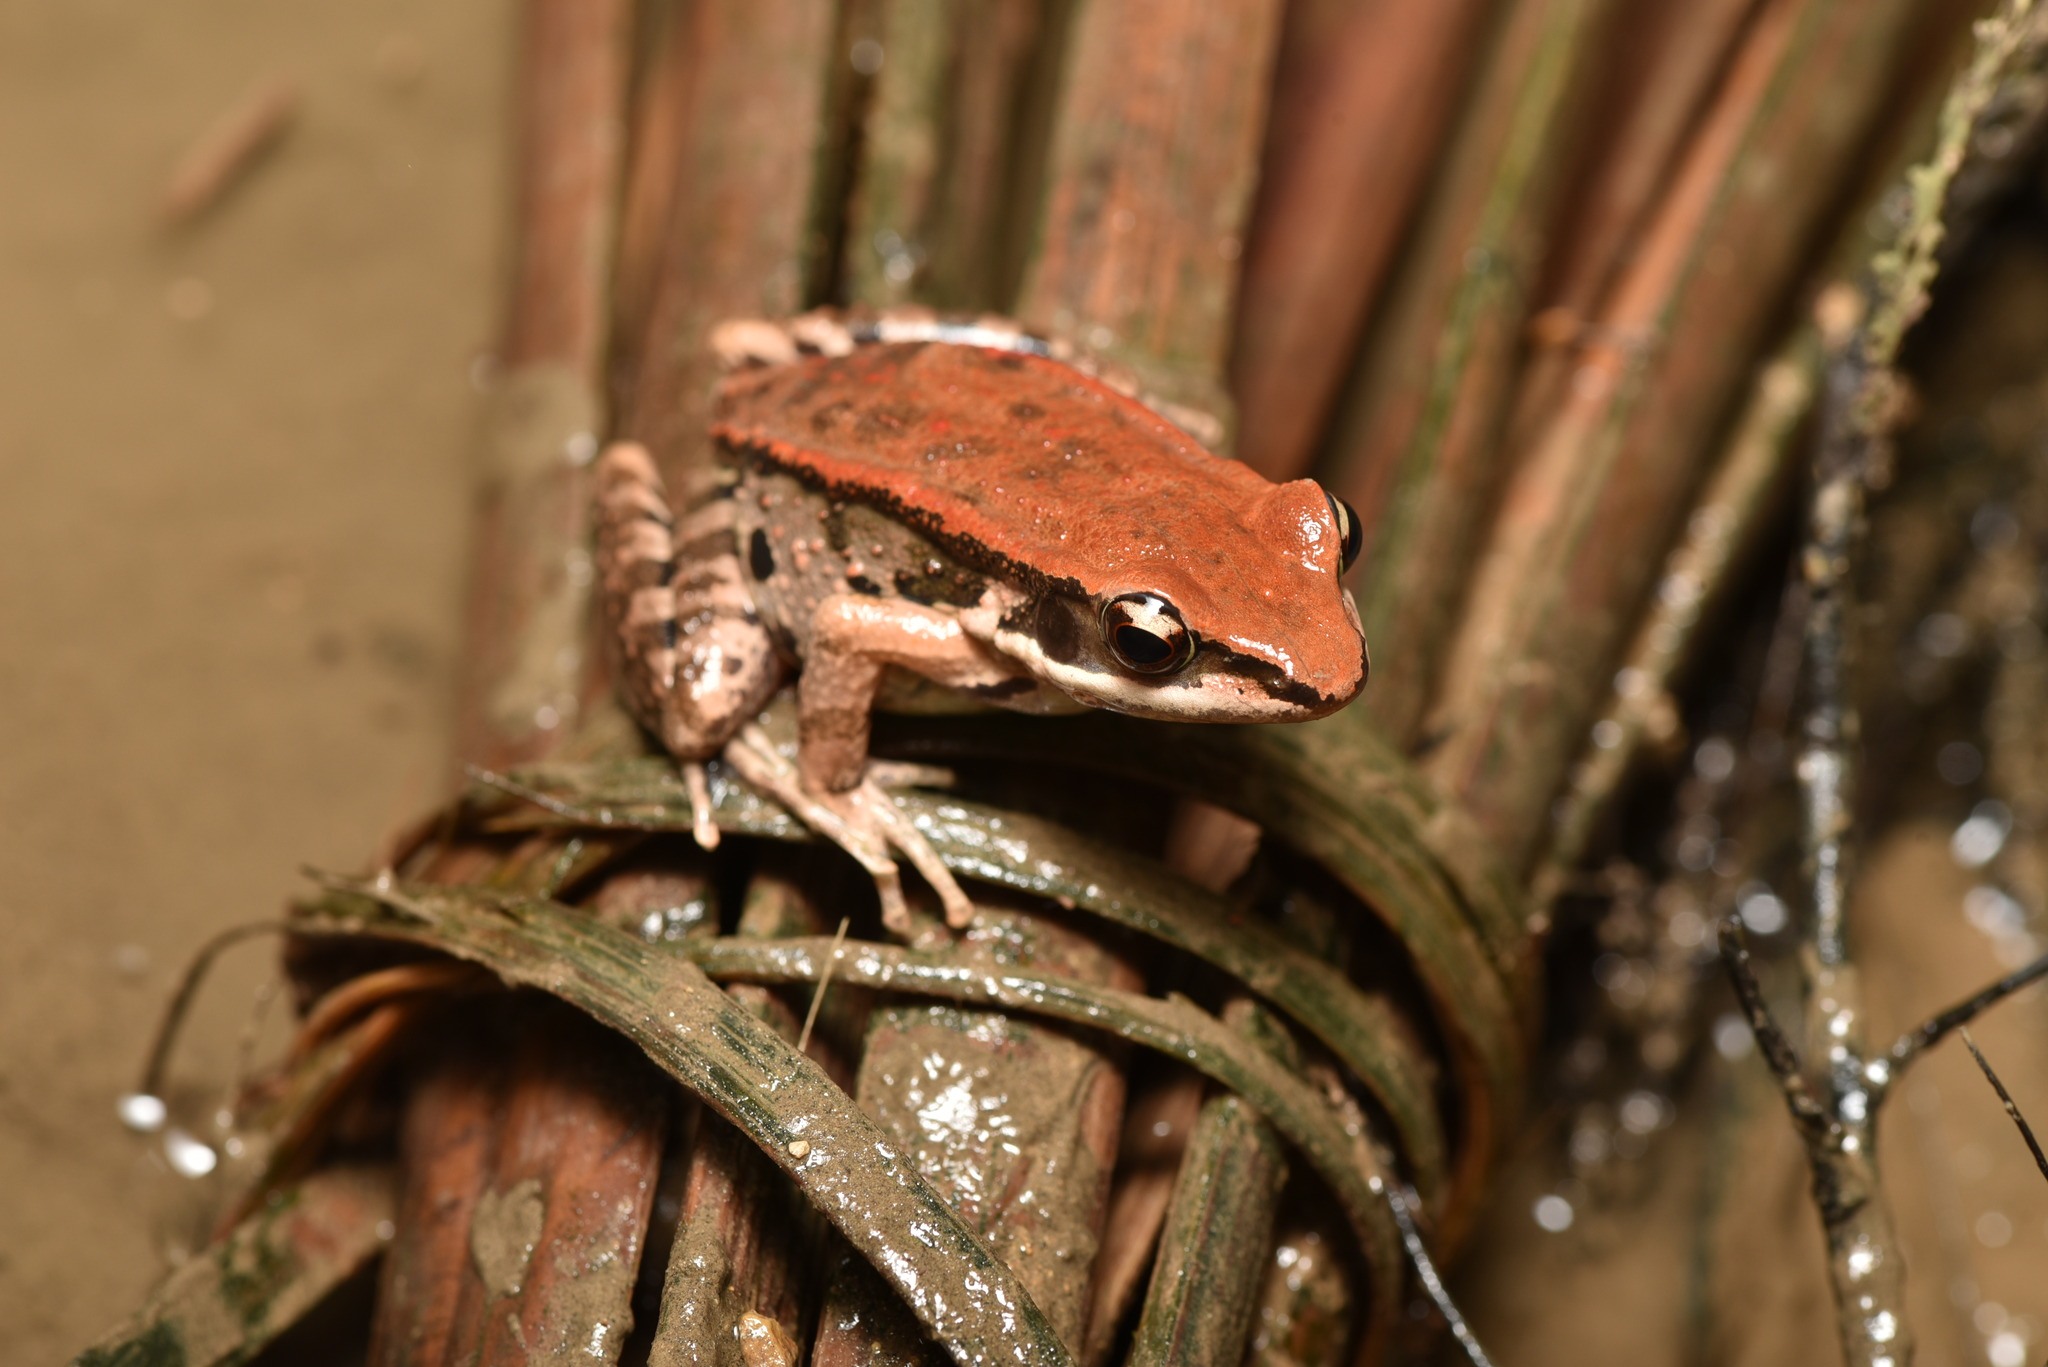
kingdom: Animalia
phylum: Chordata
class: Amphibia
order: Anura
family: Ranidae
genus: Hylarana
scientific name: Hylarana latouchii
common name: Broad-folded frog
